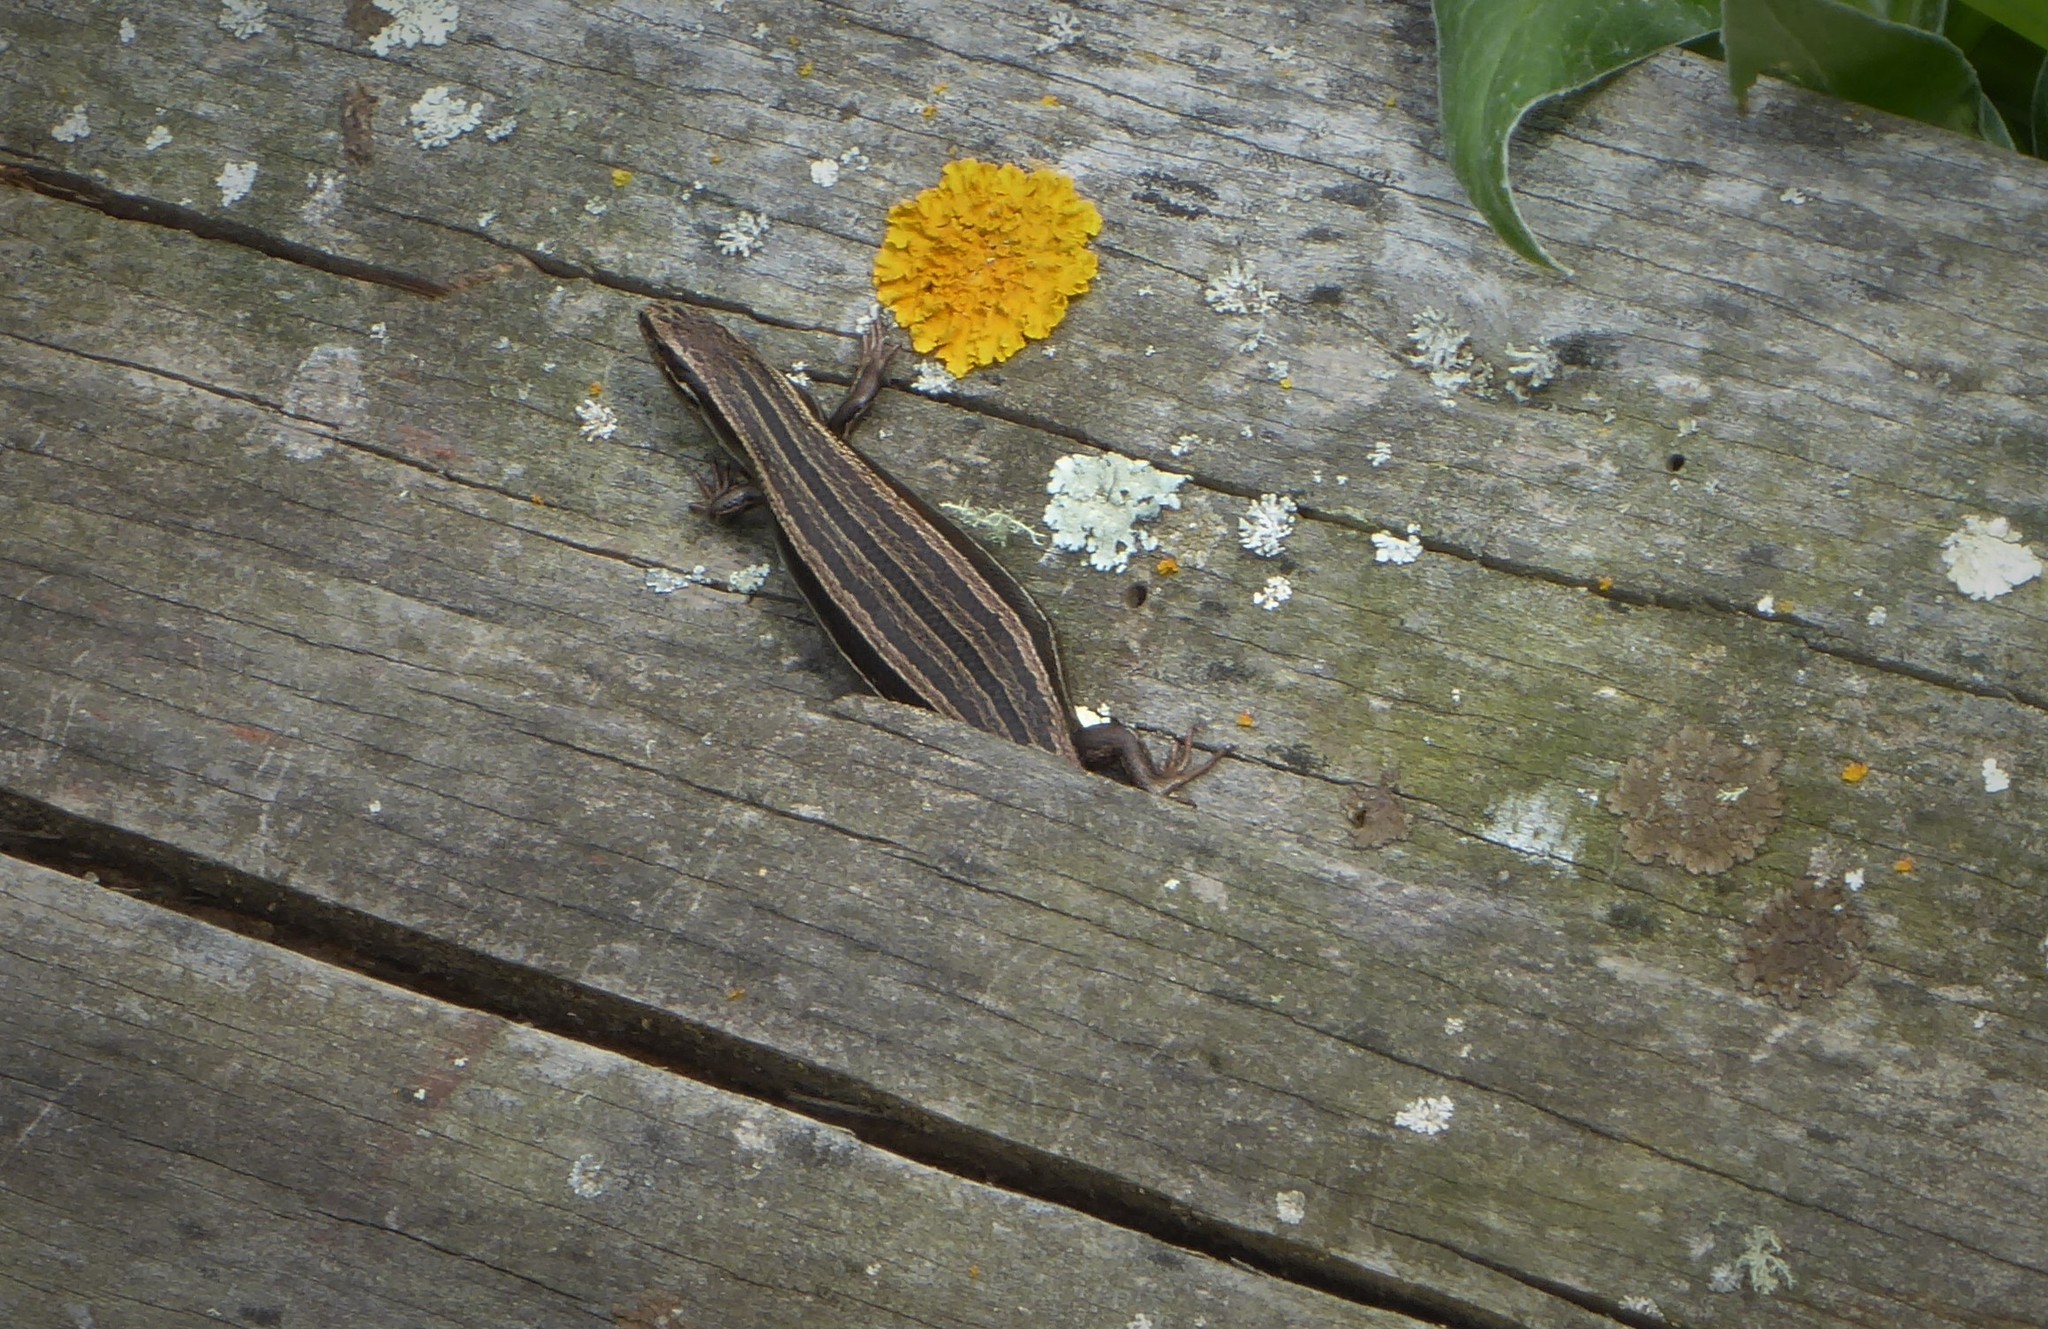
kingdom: Animalia
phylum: Chordata
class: Squamata
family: Scincidae
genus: Oligosoma
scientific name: Oligosoma polychroma
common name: Common new zealand skink
